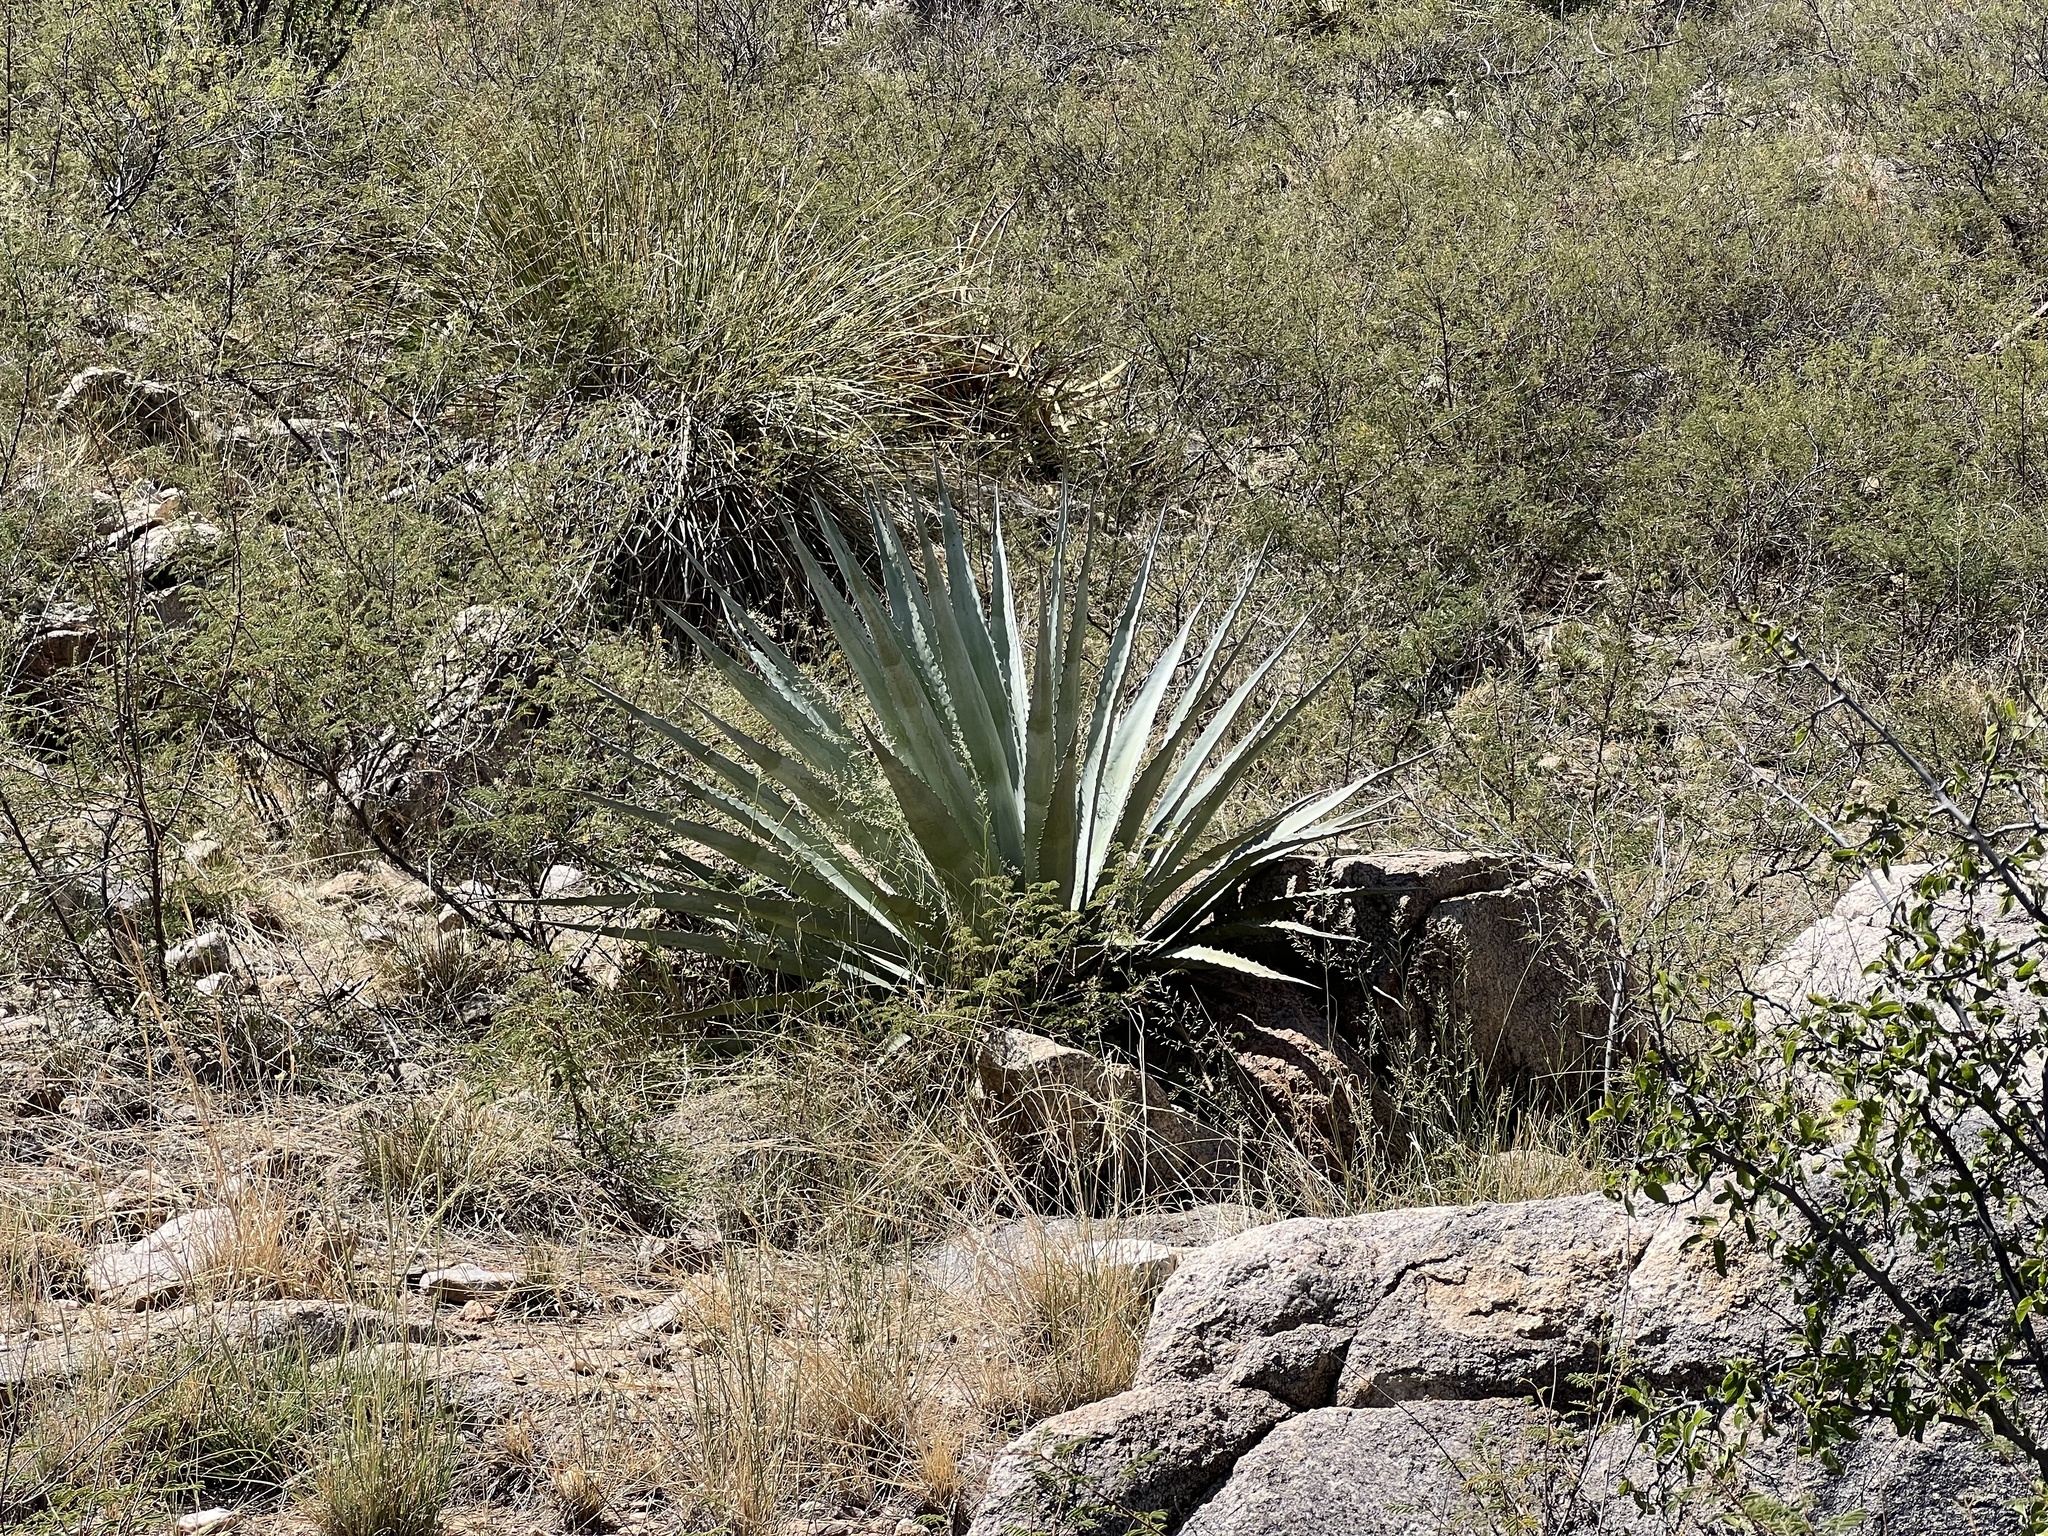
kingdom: Plantae
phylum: Tracheophyta
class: Liliopsida
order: Asparagales
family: Asparagaceae
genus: Agave
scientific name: Agave palmeri
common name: Palmer agave
